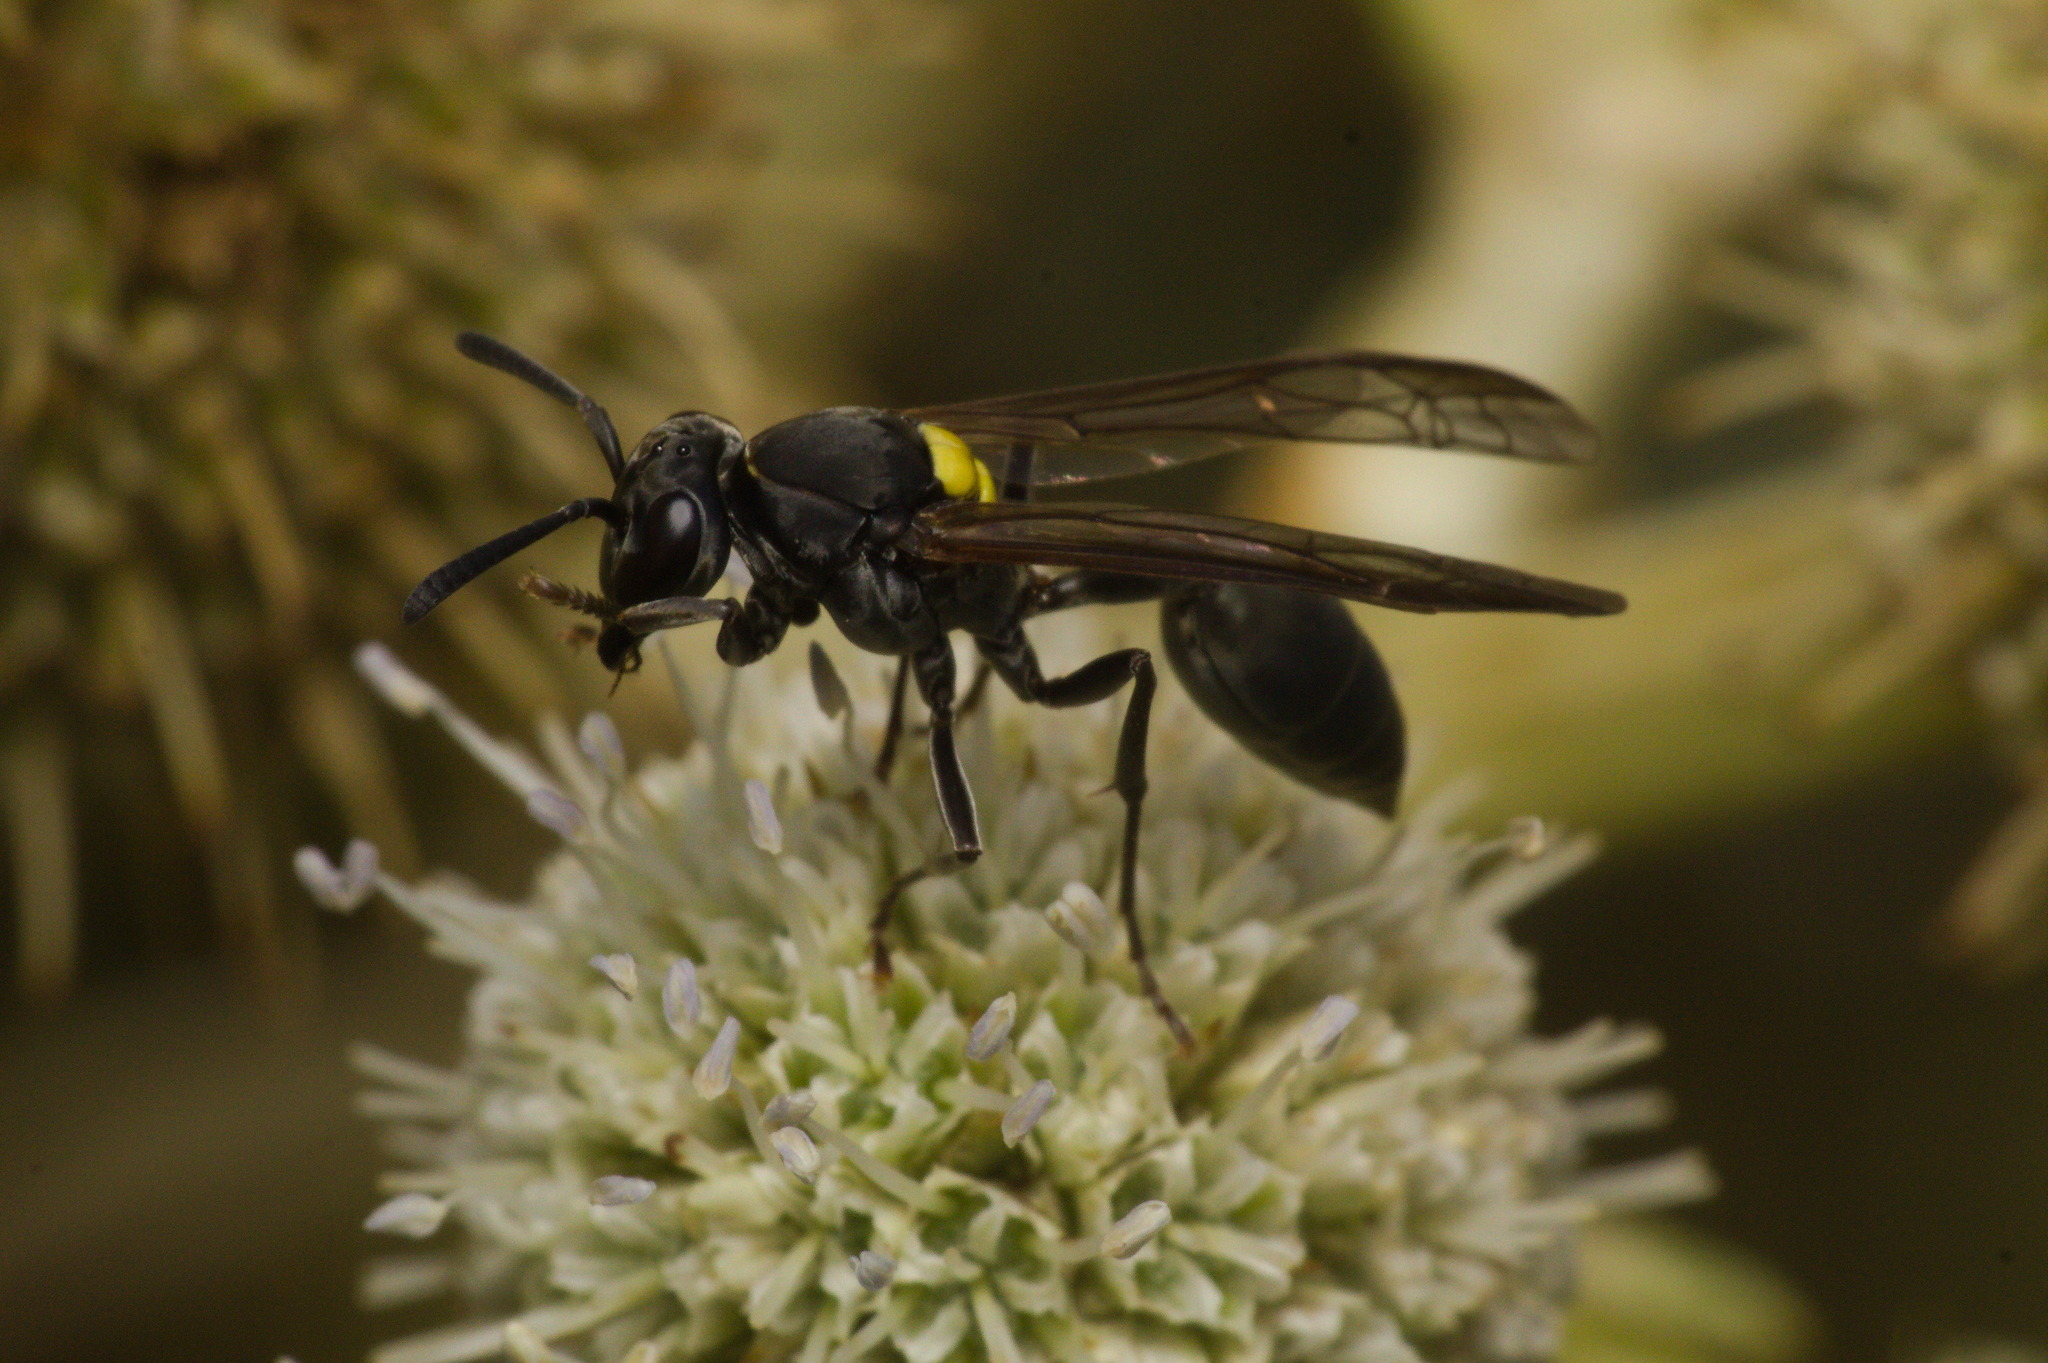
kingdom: Animalia
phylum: Arthropoda
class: Insecta
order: Hymenoptera
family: Eumenidae
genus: Polybia
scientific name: Polybia scutellaris
